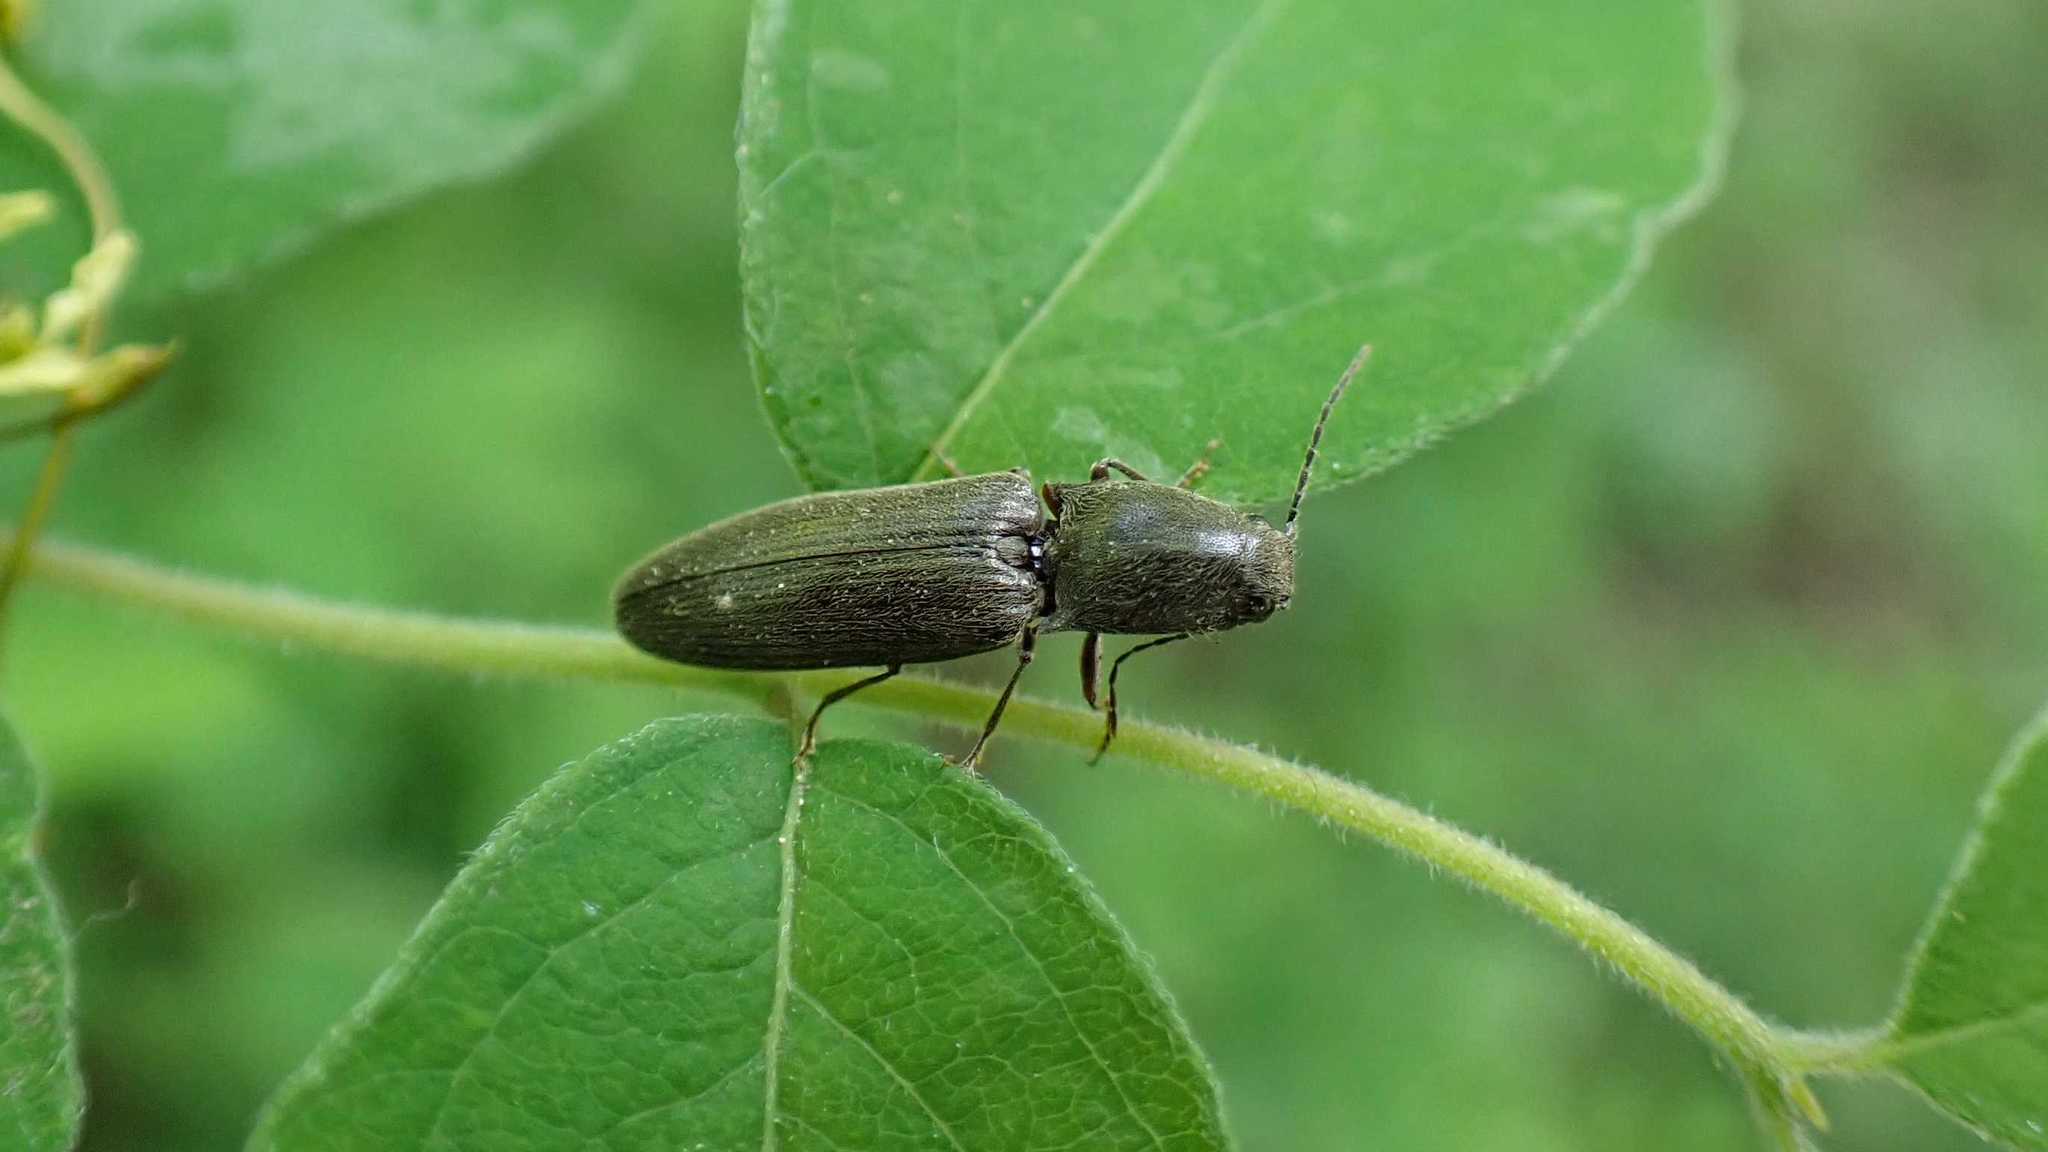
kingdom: Animalia
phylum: Arthropoda
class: Insecta
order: Coleoptera
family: Elateridae
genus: Athous
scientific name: Athous haemorrhoidalis
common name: Red-brown click beetle
